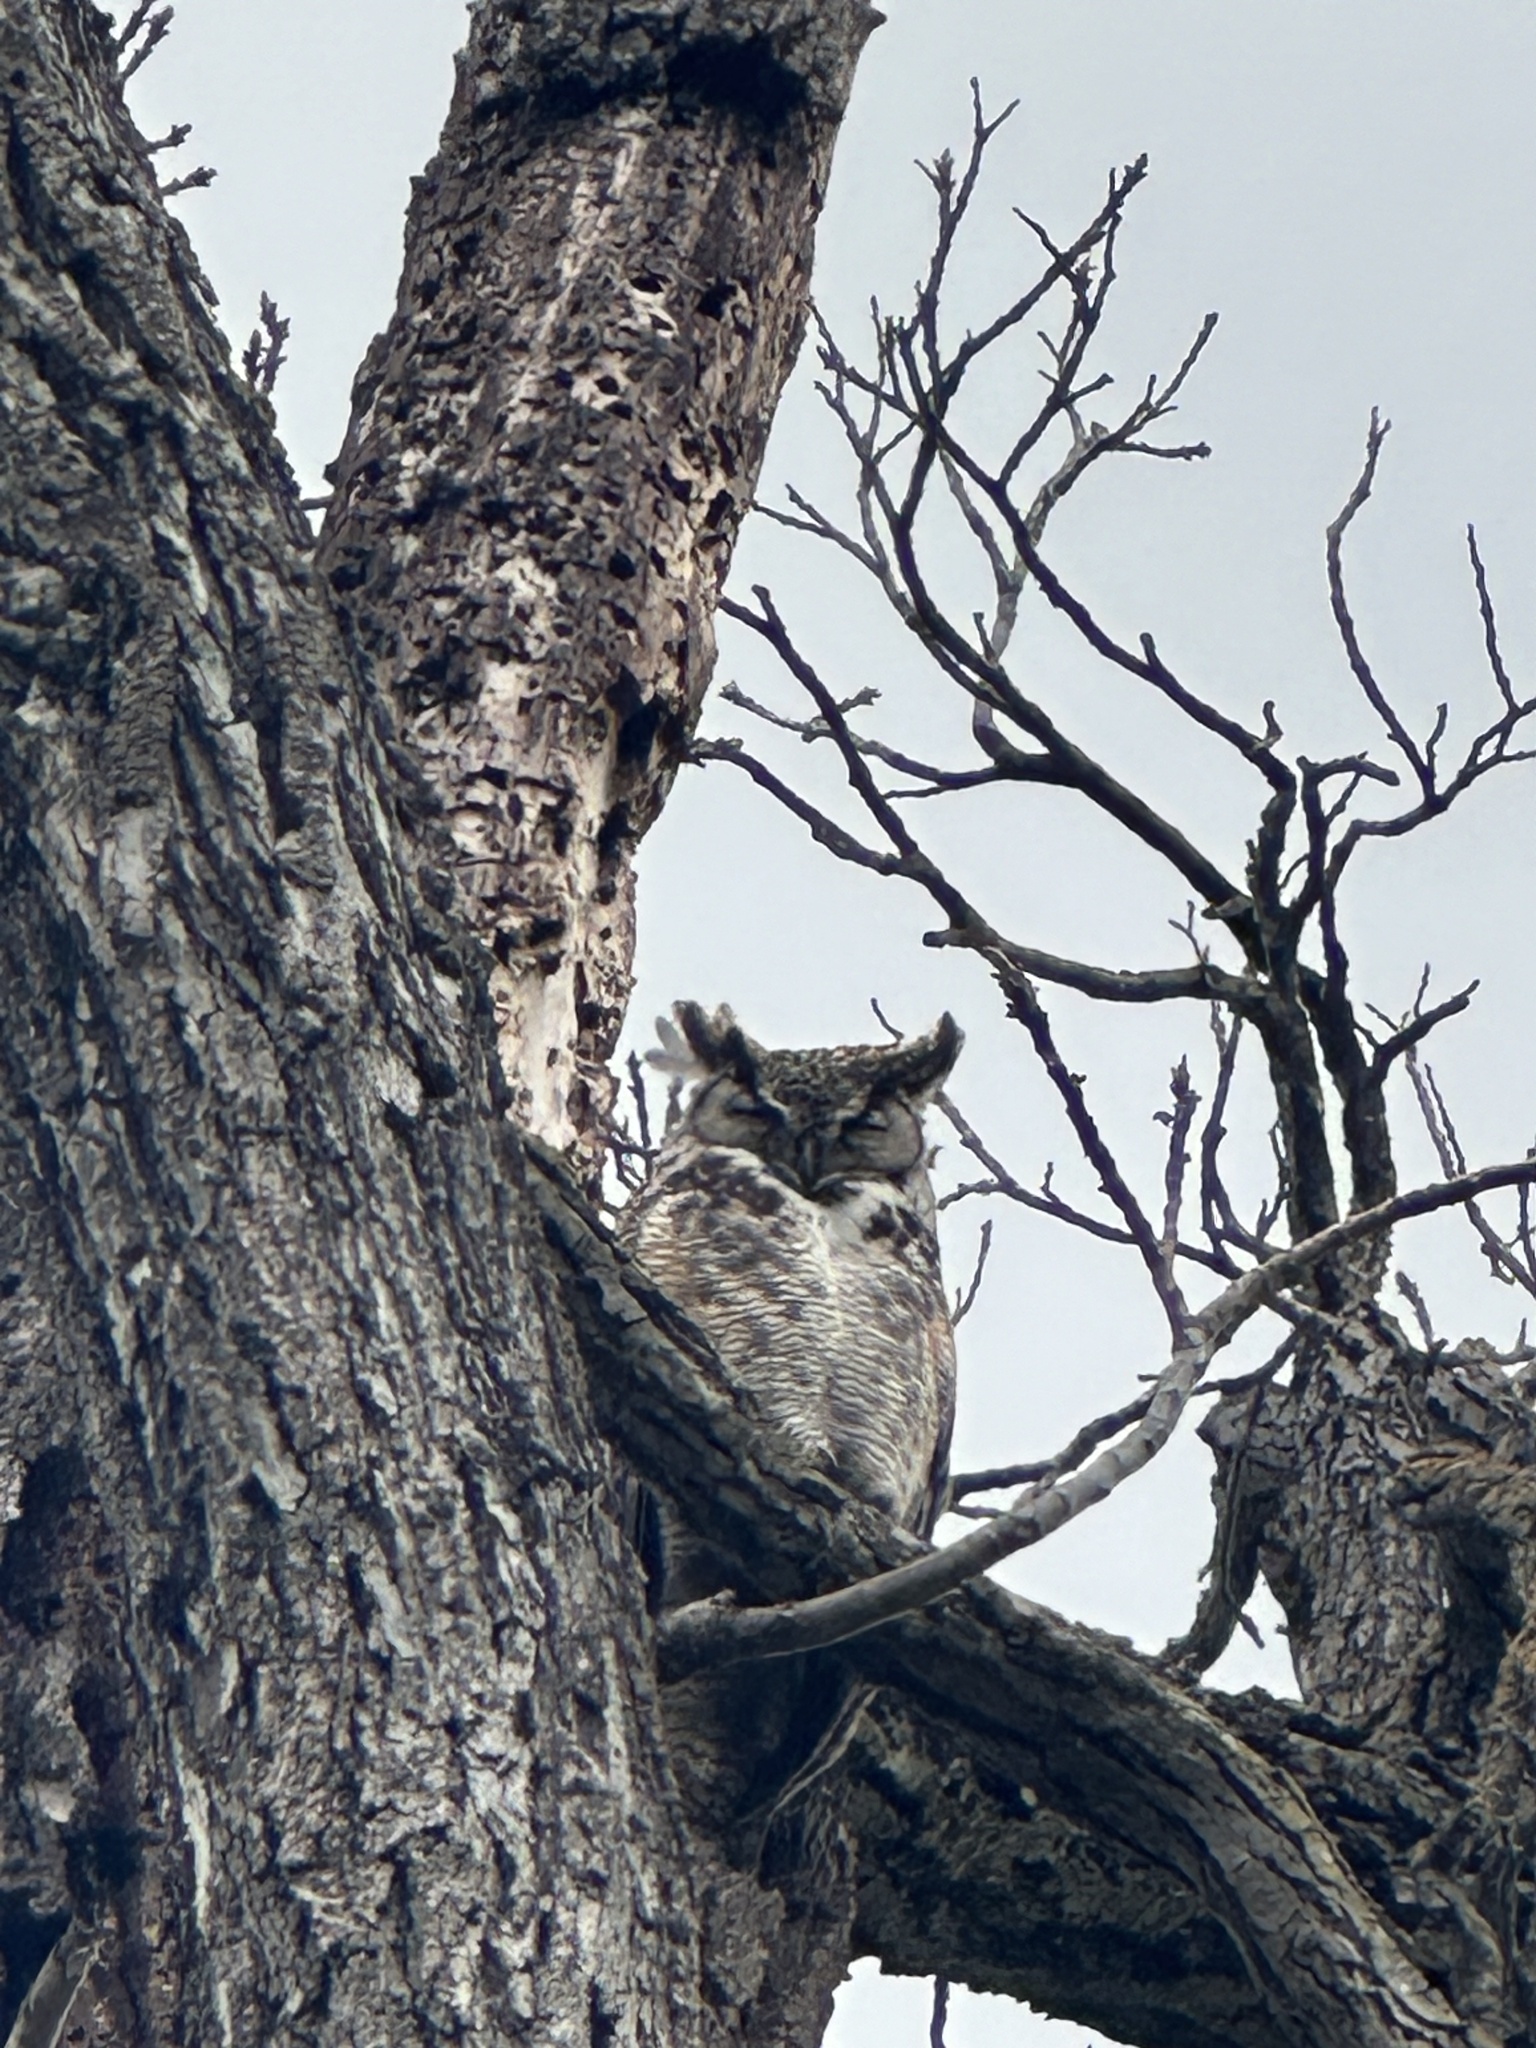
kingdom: Animalia
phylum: Chordata
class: Aves
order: Strigiformes
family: Strigidae
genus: Bubo
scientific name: Bubo virginianus
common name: Great horned owl
